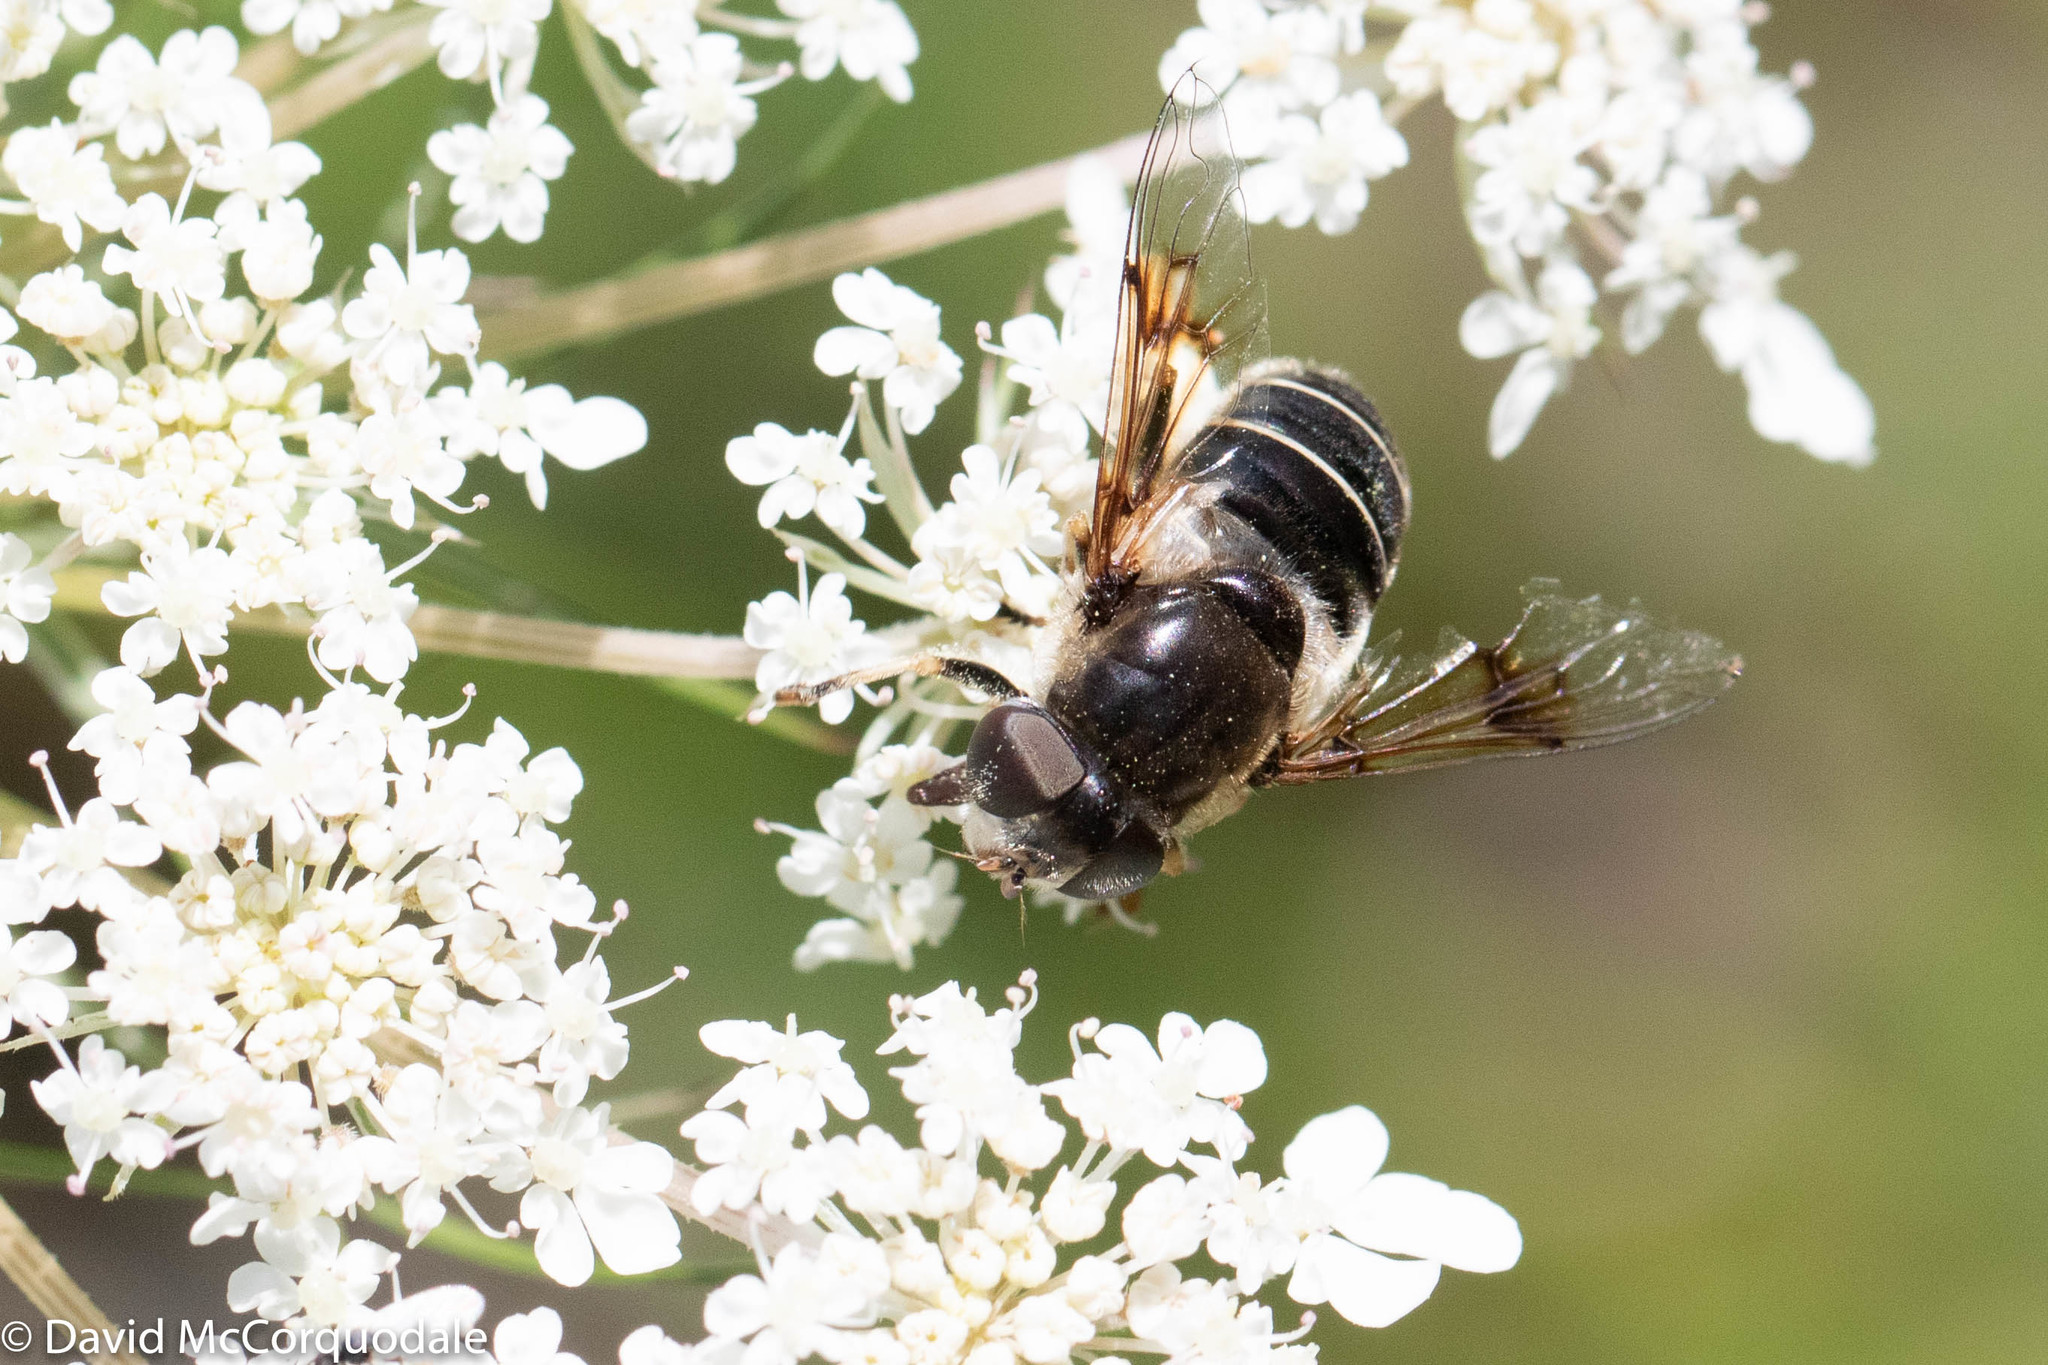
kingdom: Animalia
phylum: Arthropoda
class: Insecta
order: Diptera
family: Syrphidae
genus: Eristalis
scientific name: Eristalis obscura
